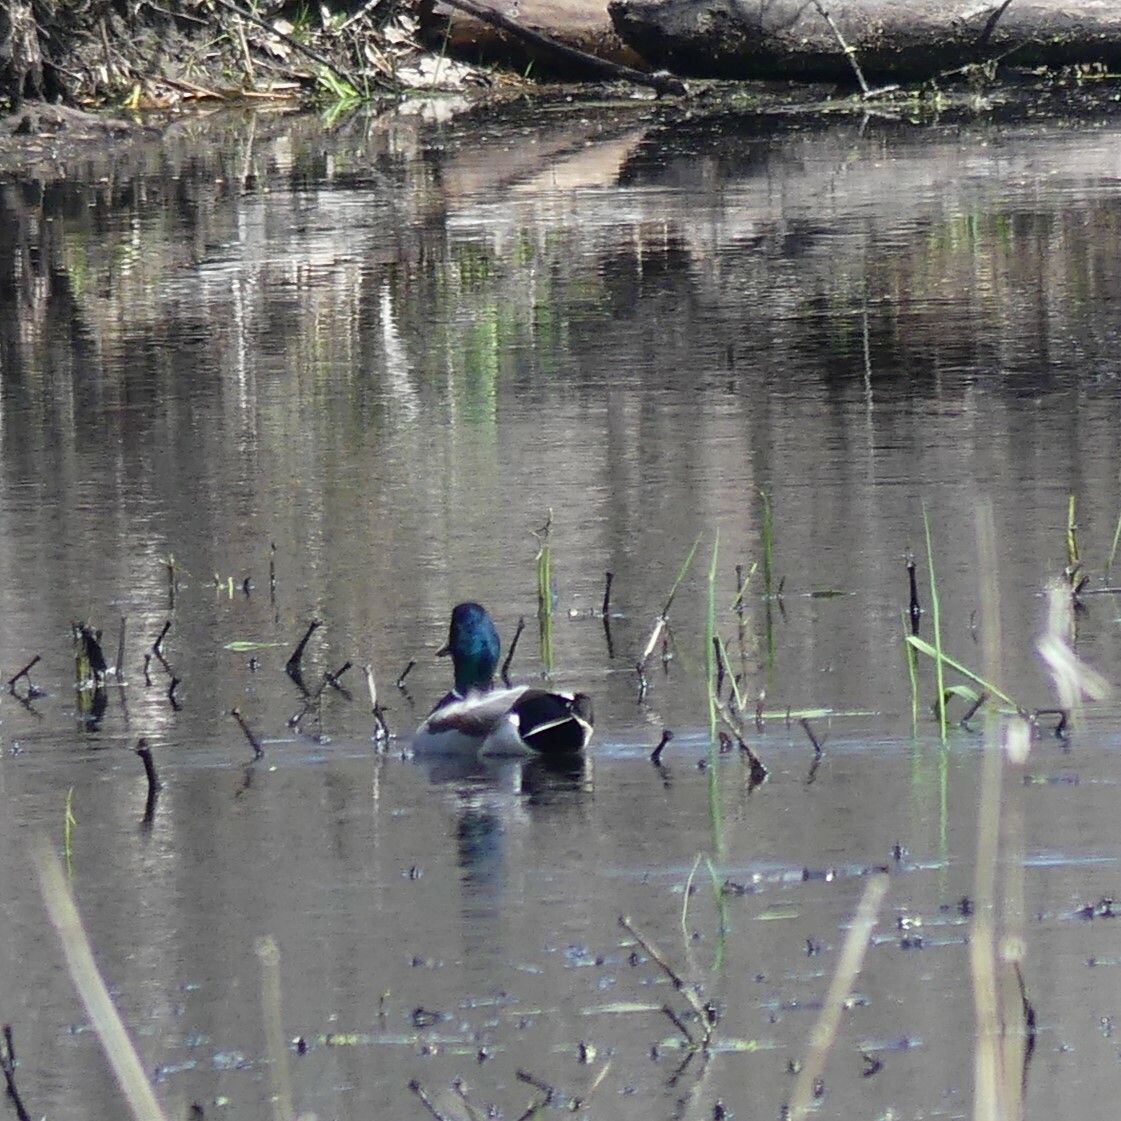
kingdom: Animalia
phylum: Chordata
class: Aves
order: Anseriformes
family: Anatidae
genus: Anas
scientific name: Anas platyrhynchos
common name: Mallard
